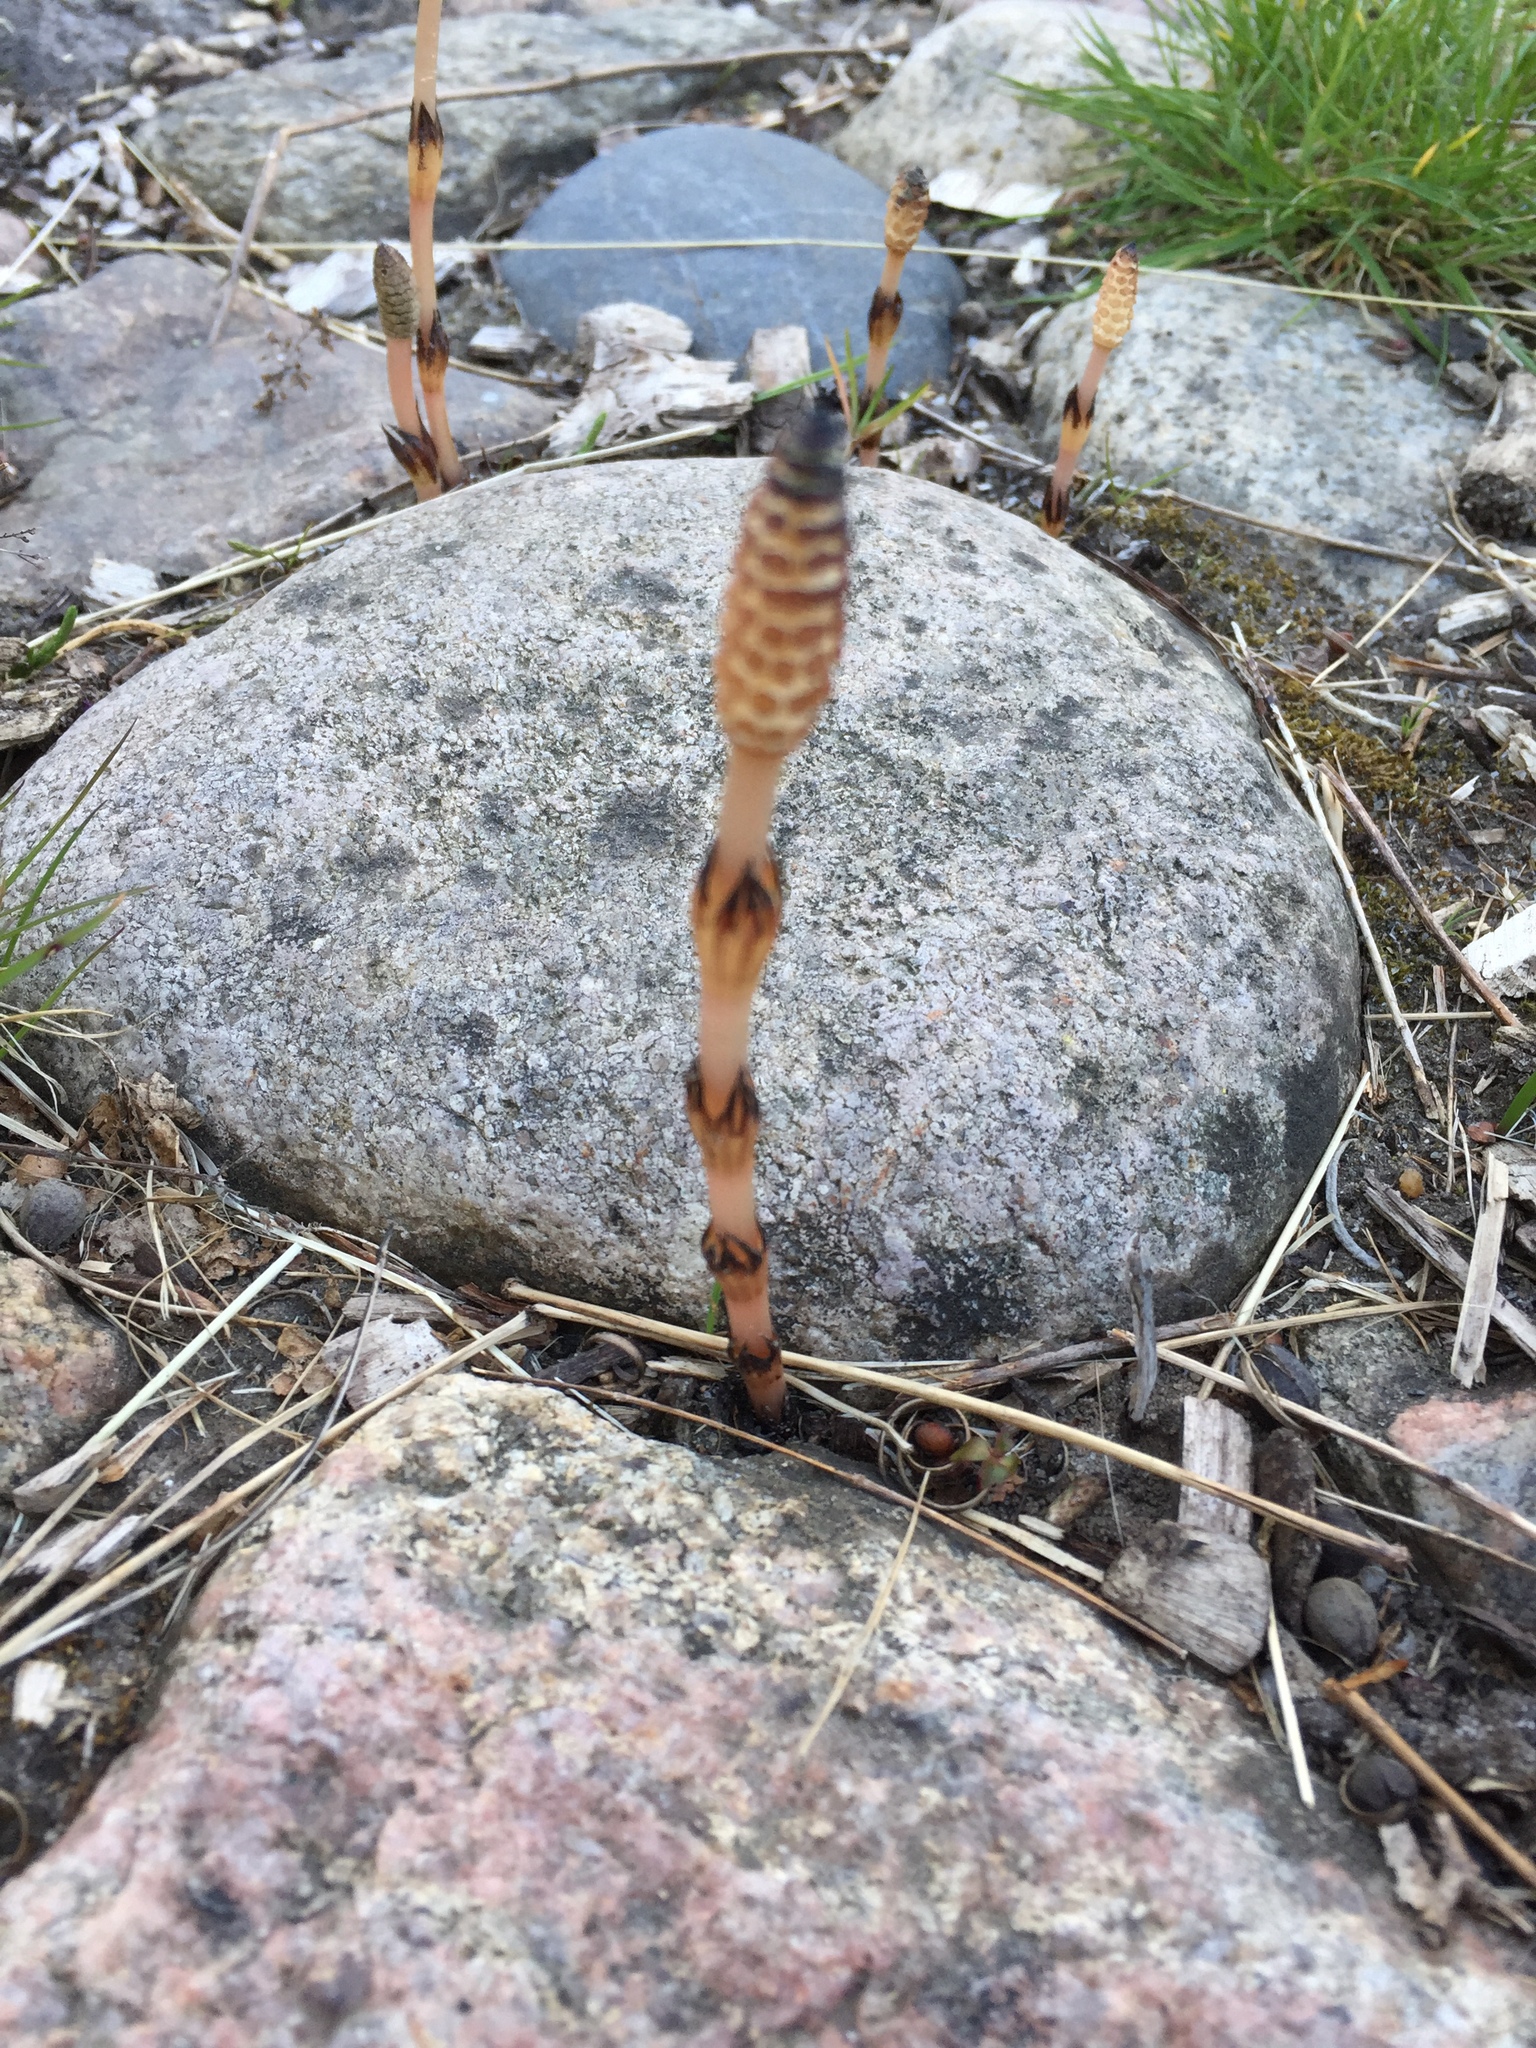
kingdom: Plantae
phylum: Tracheophyta
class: Polypodiopsida
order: Equisetales
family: Equisetaceae
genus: Equisetum
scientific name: Equisetum arvense
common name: Field horsetail
